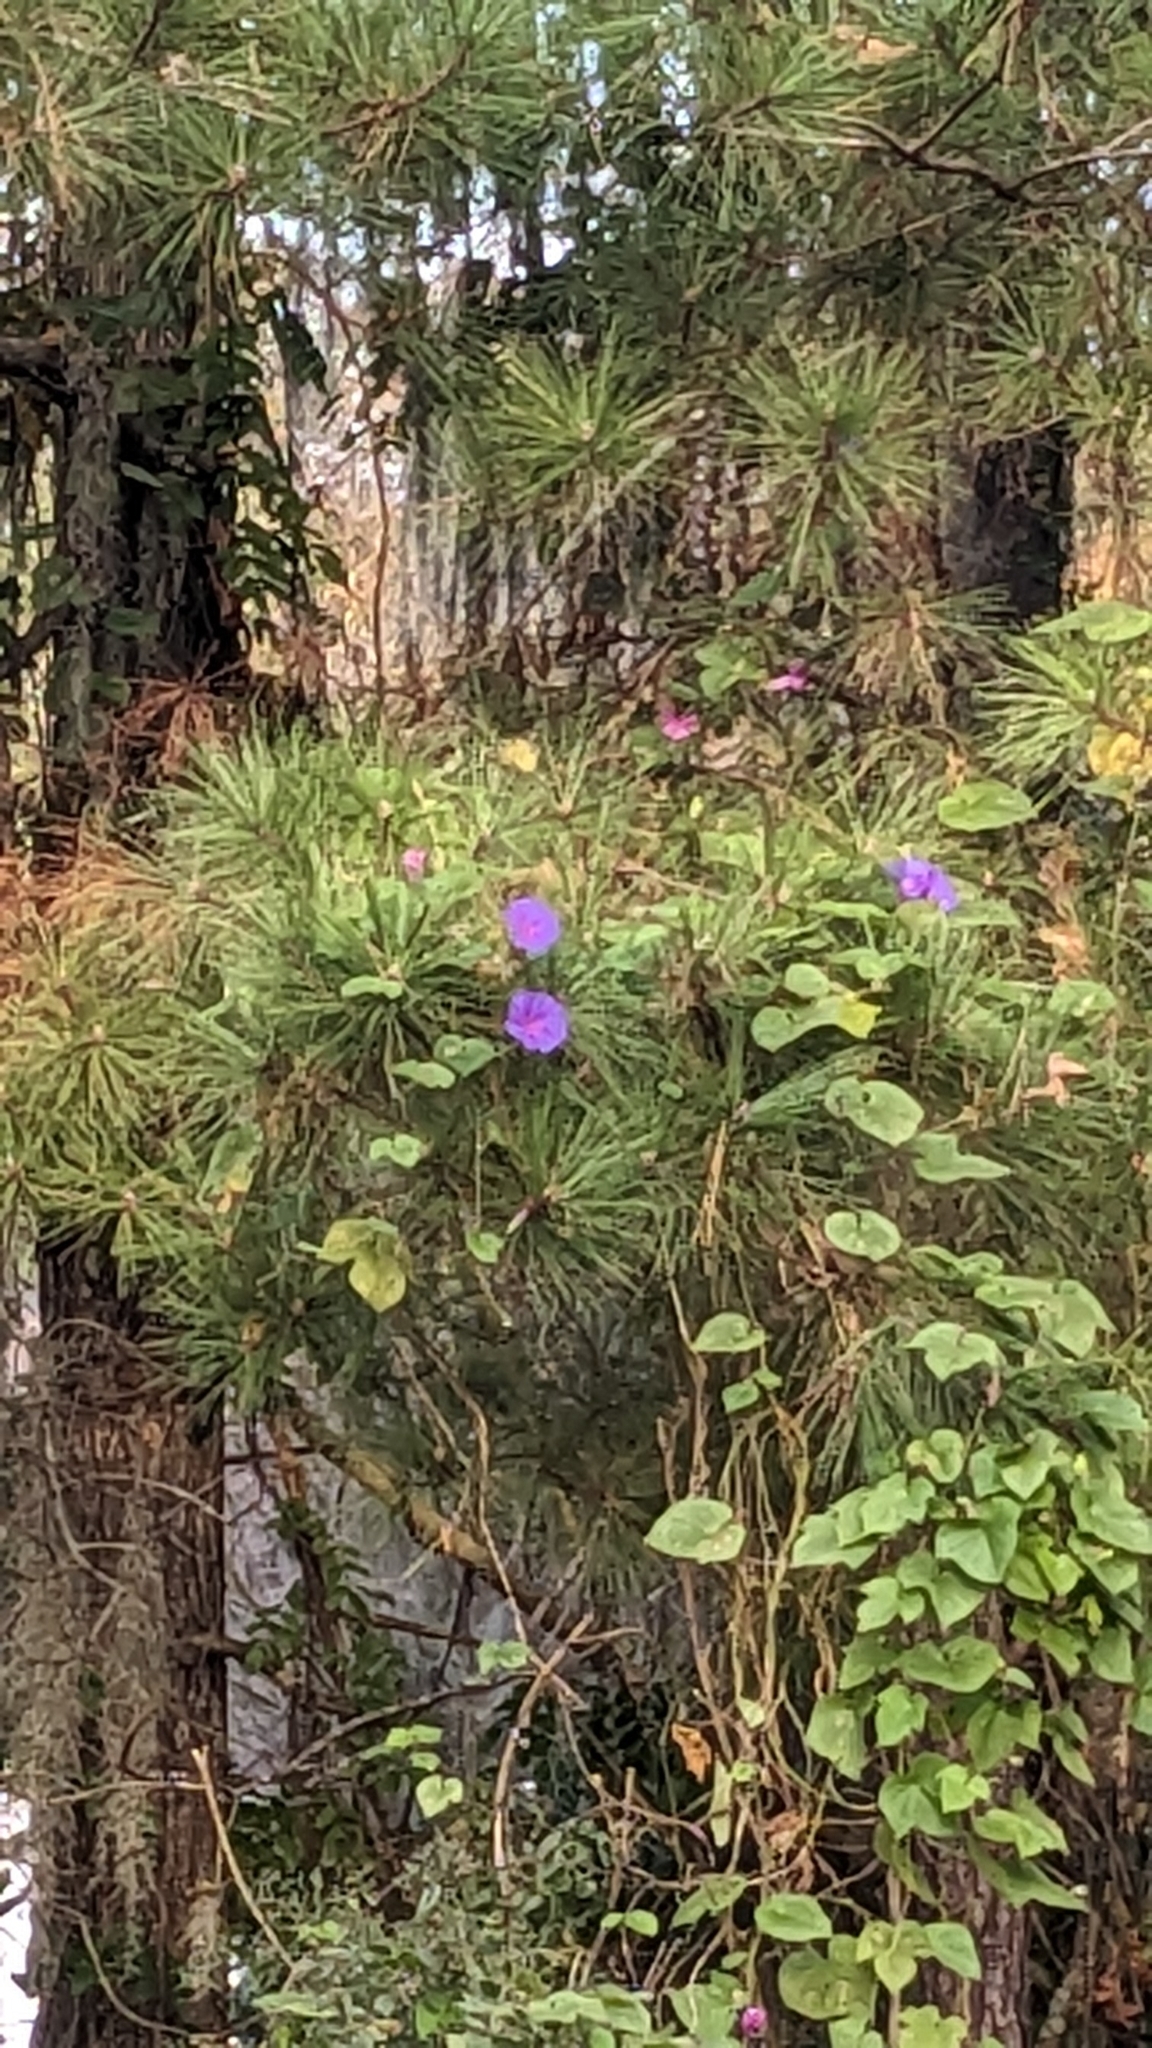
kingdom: Plantae
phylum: Tracheophyta
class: Magnoliopsida
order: Solanales
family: Convolvulaceae
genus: Ipomoea
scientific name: Ipomoea indica
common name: Blue dawnflower
